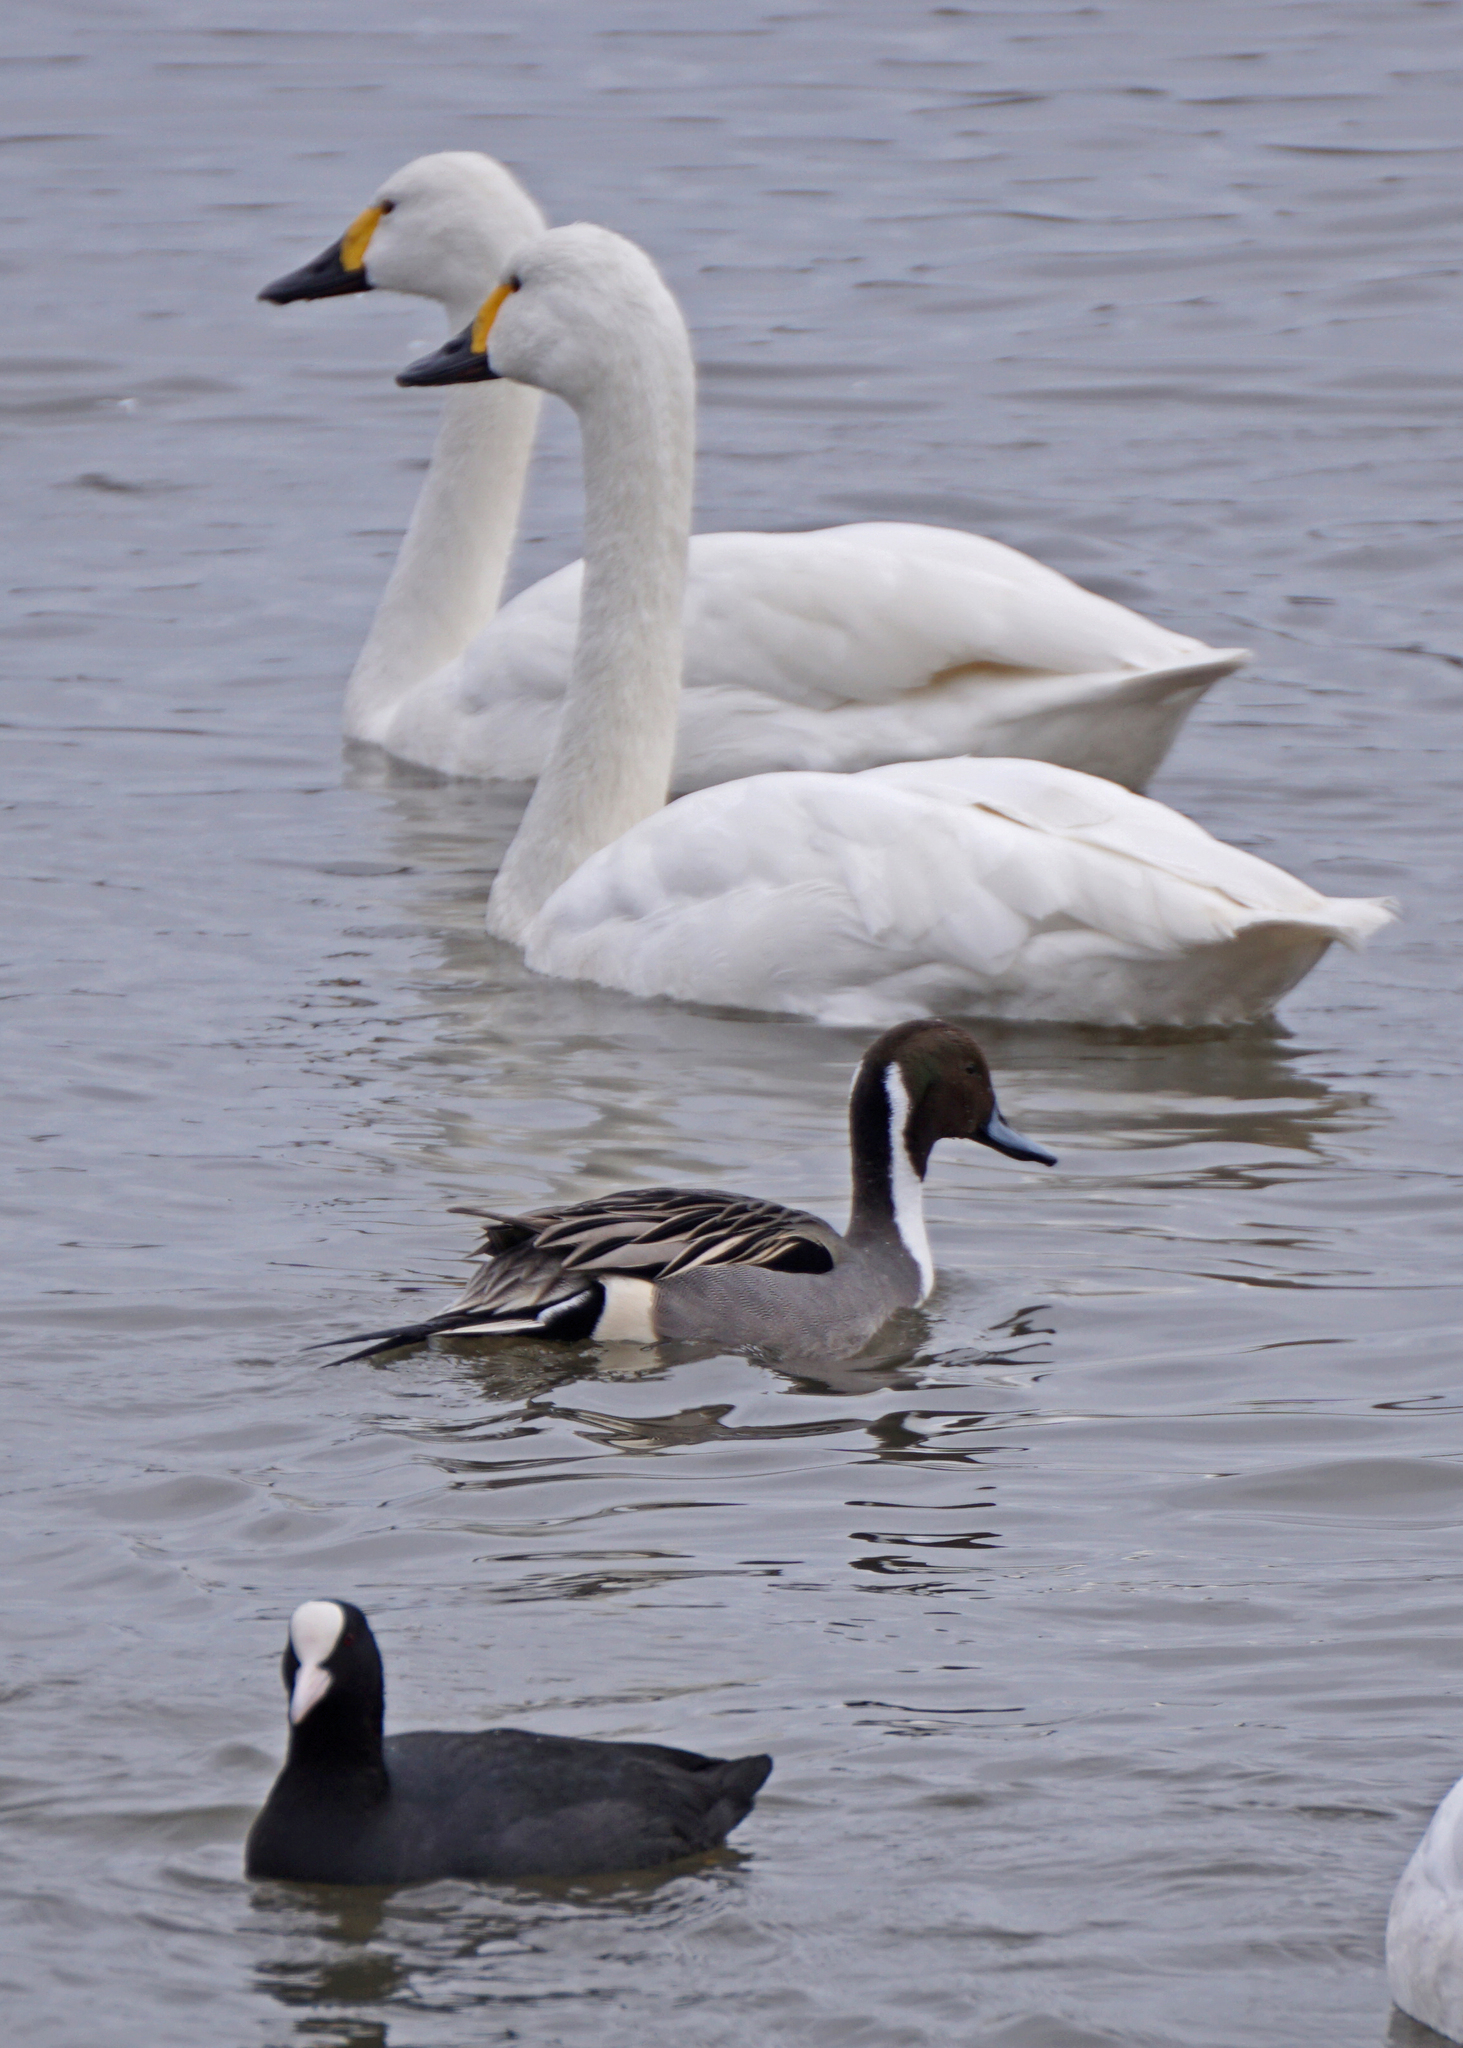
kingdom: Animalia
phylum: Chordata
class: Aves
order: Anseriformes
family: Anatidae
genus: Anas
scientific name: Anas acuta
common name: Northern pintail
